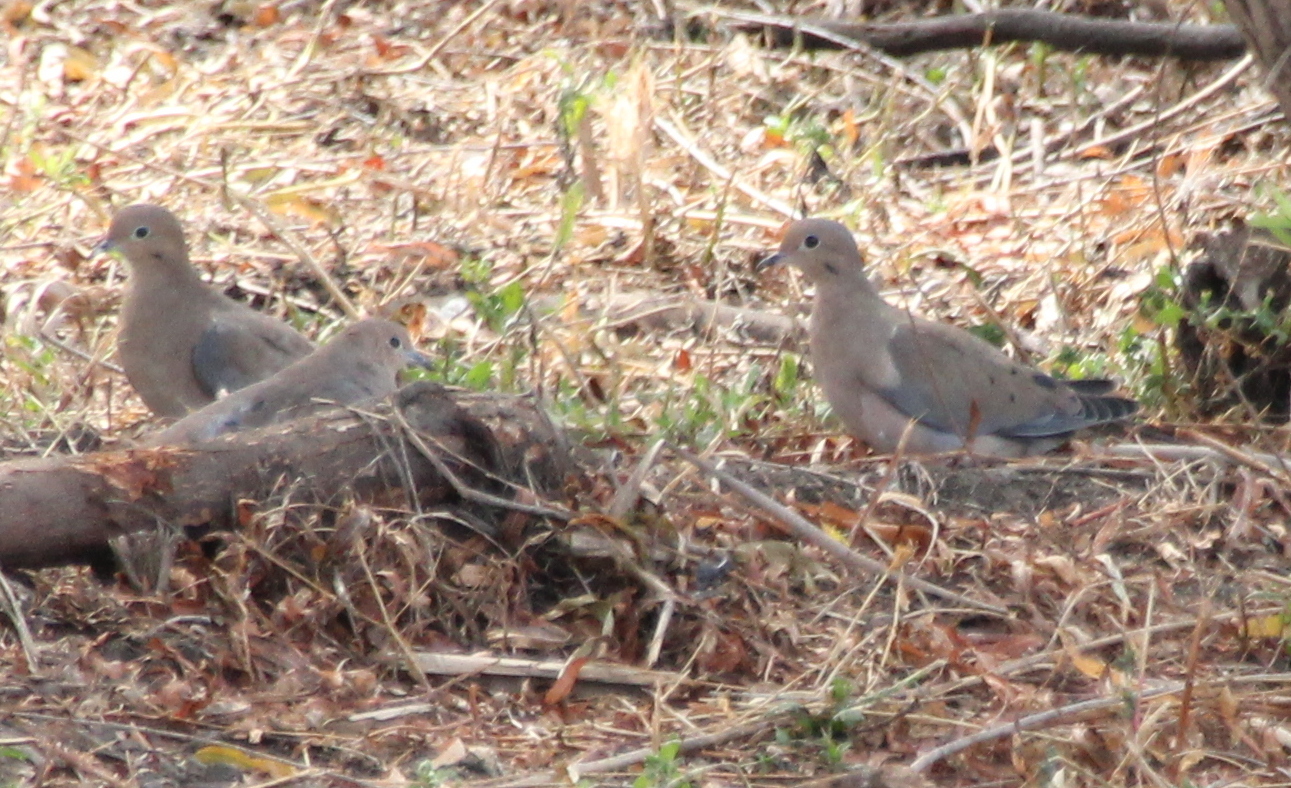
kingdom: Animalia
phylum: Chordata
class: Aves
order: Columbiformes
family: Columbidae
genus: Zenaida
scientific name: Zenaida macroura
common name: Mourning dove
